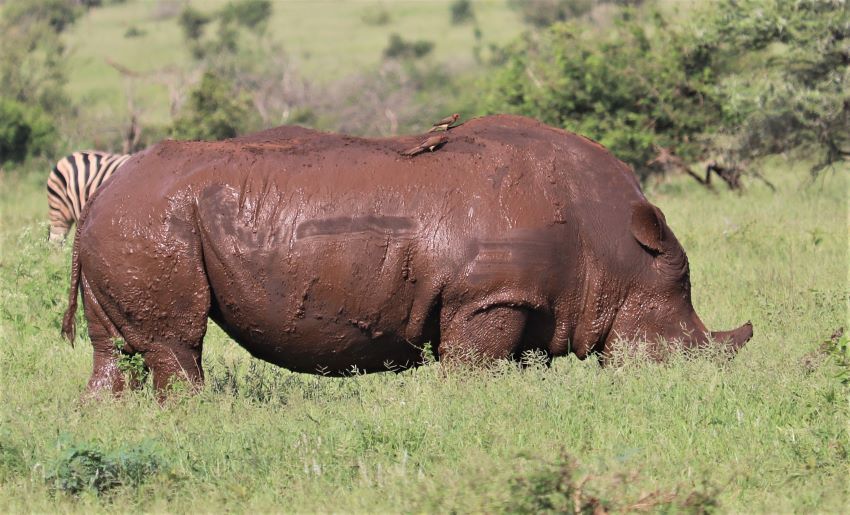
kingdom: Animalia
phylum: Chordata
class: Mammalia
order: Perissodactyla
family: Rhinocerotidae
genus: Ceratotherium
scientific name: Ceratotherium simum
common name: White rhinoceros
